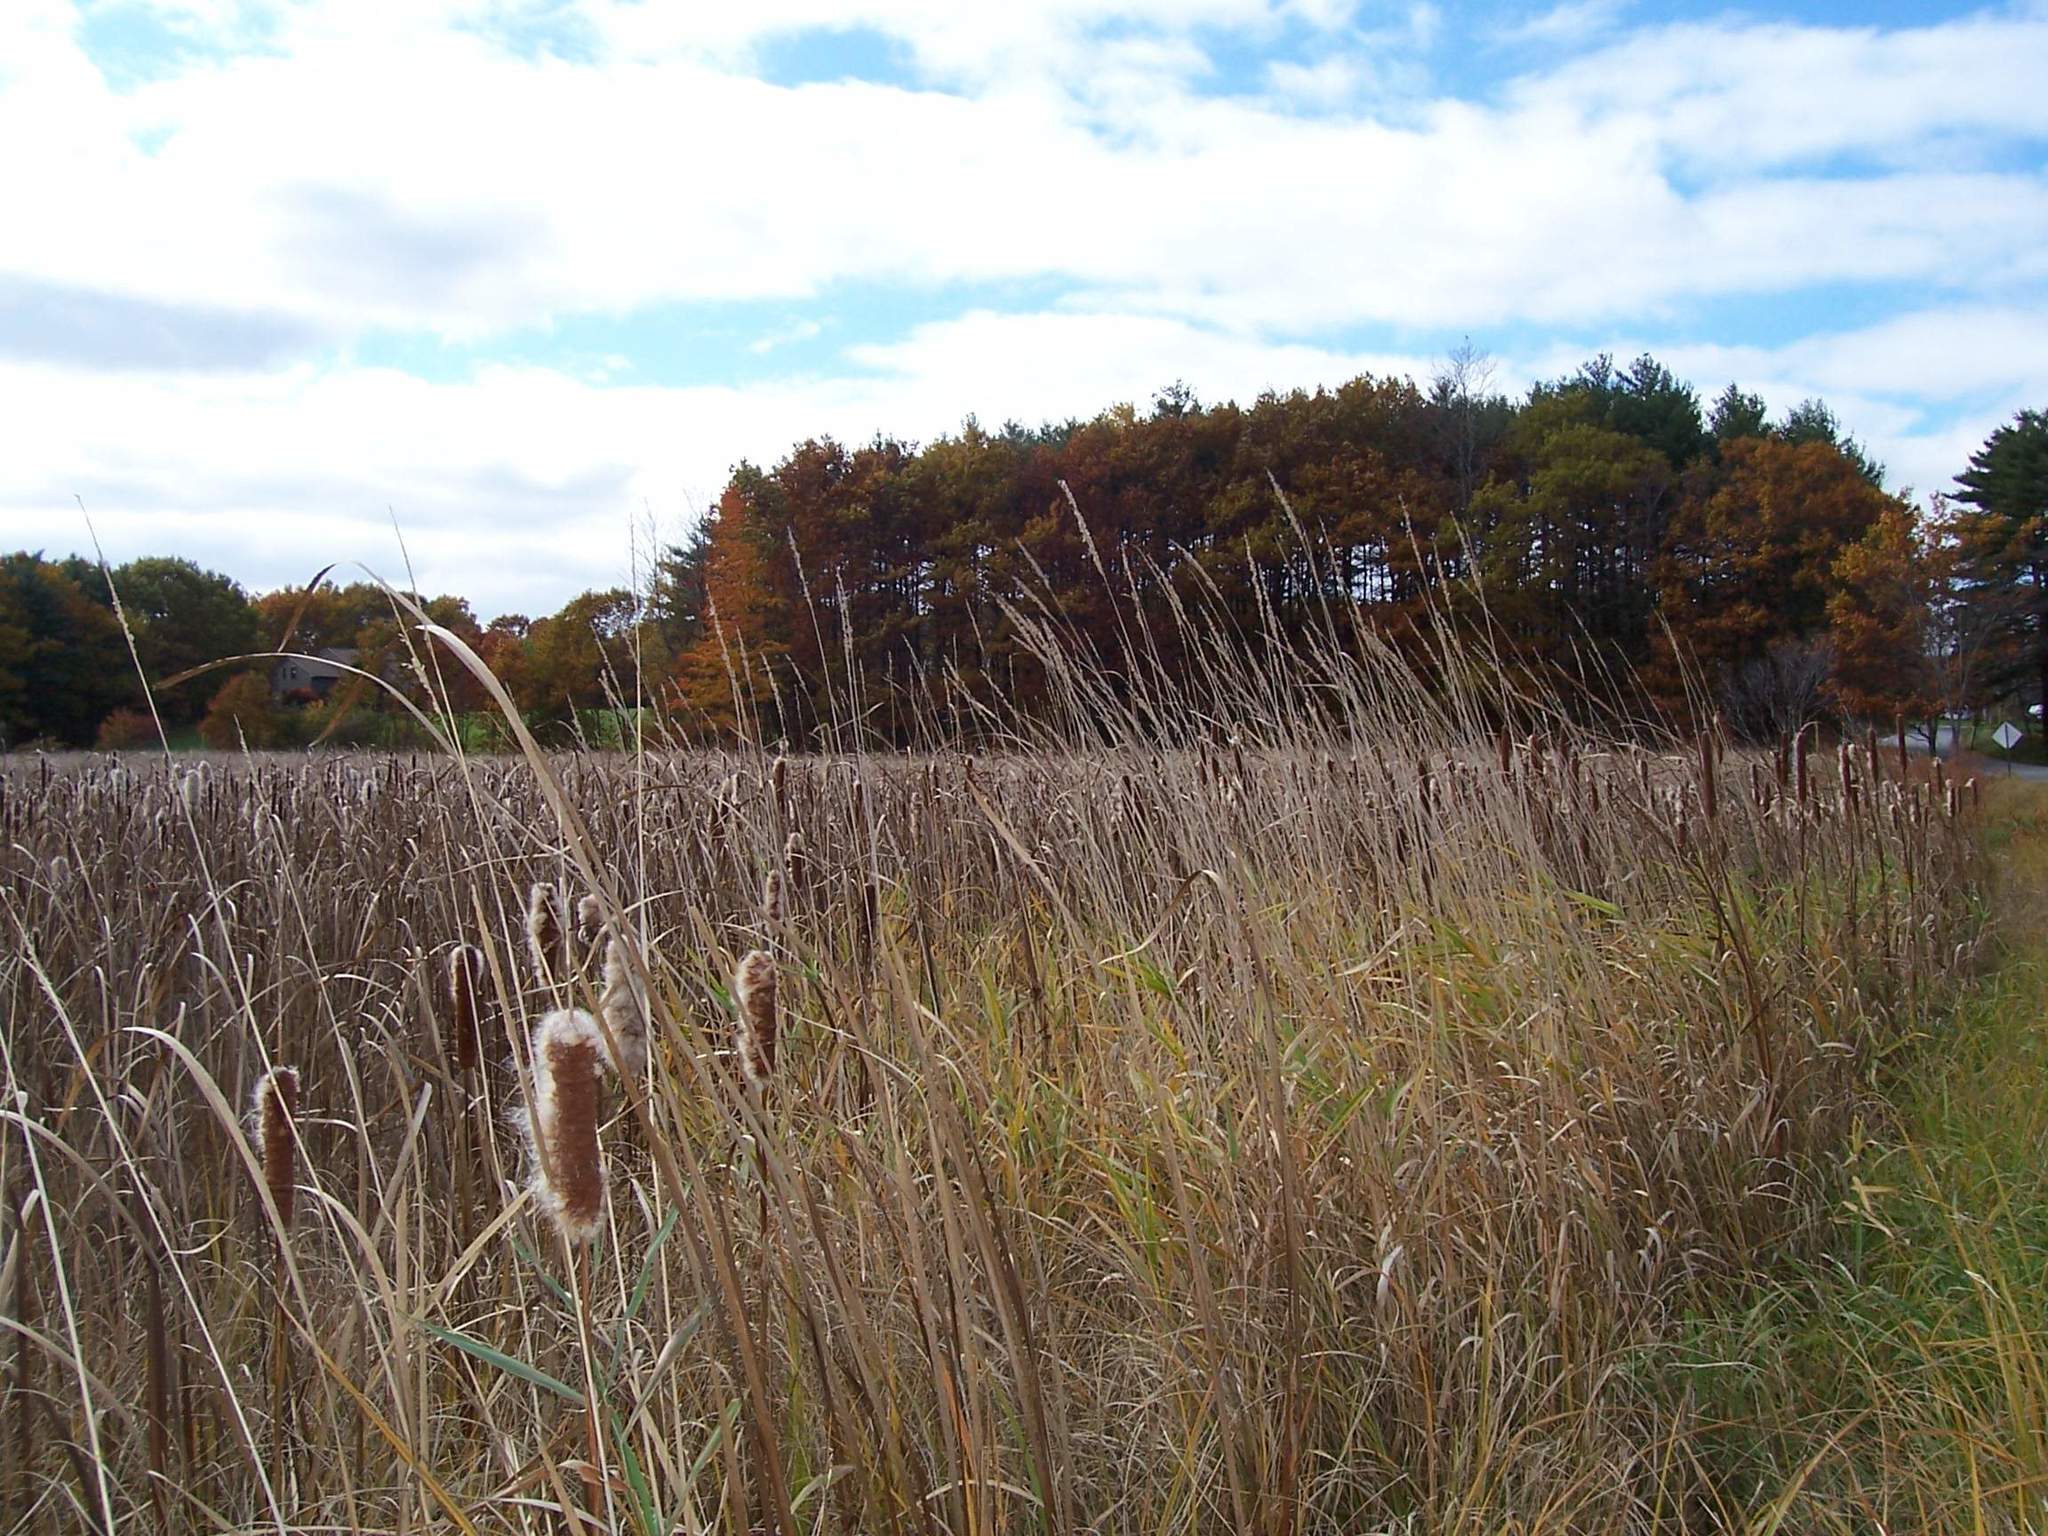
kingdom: Plantae
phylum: Tracheophyta
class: Liliopsida
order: Poales
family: Typhaceae
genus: Typha
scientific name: Typha
